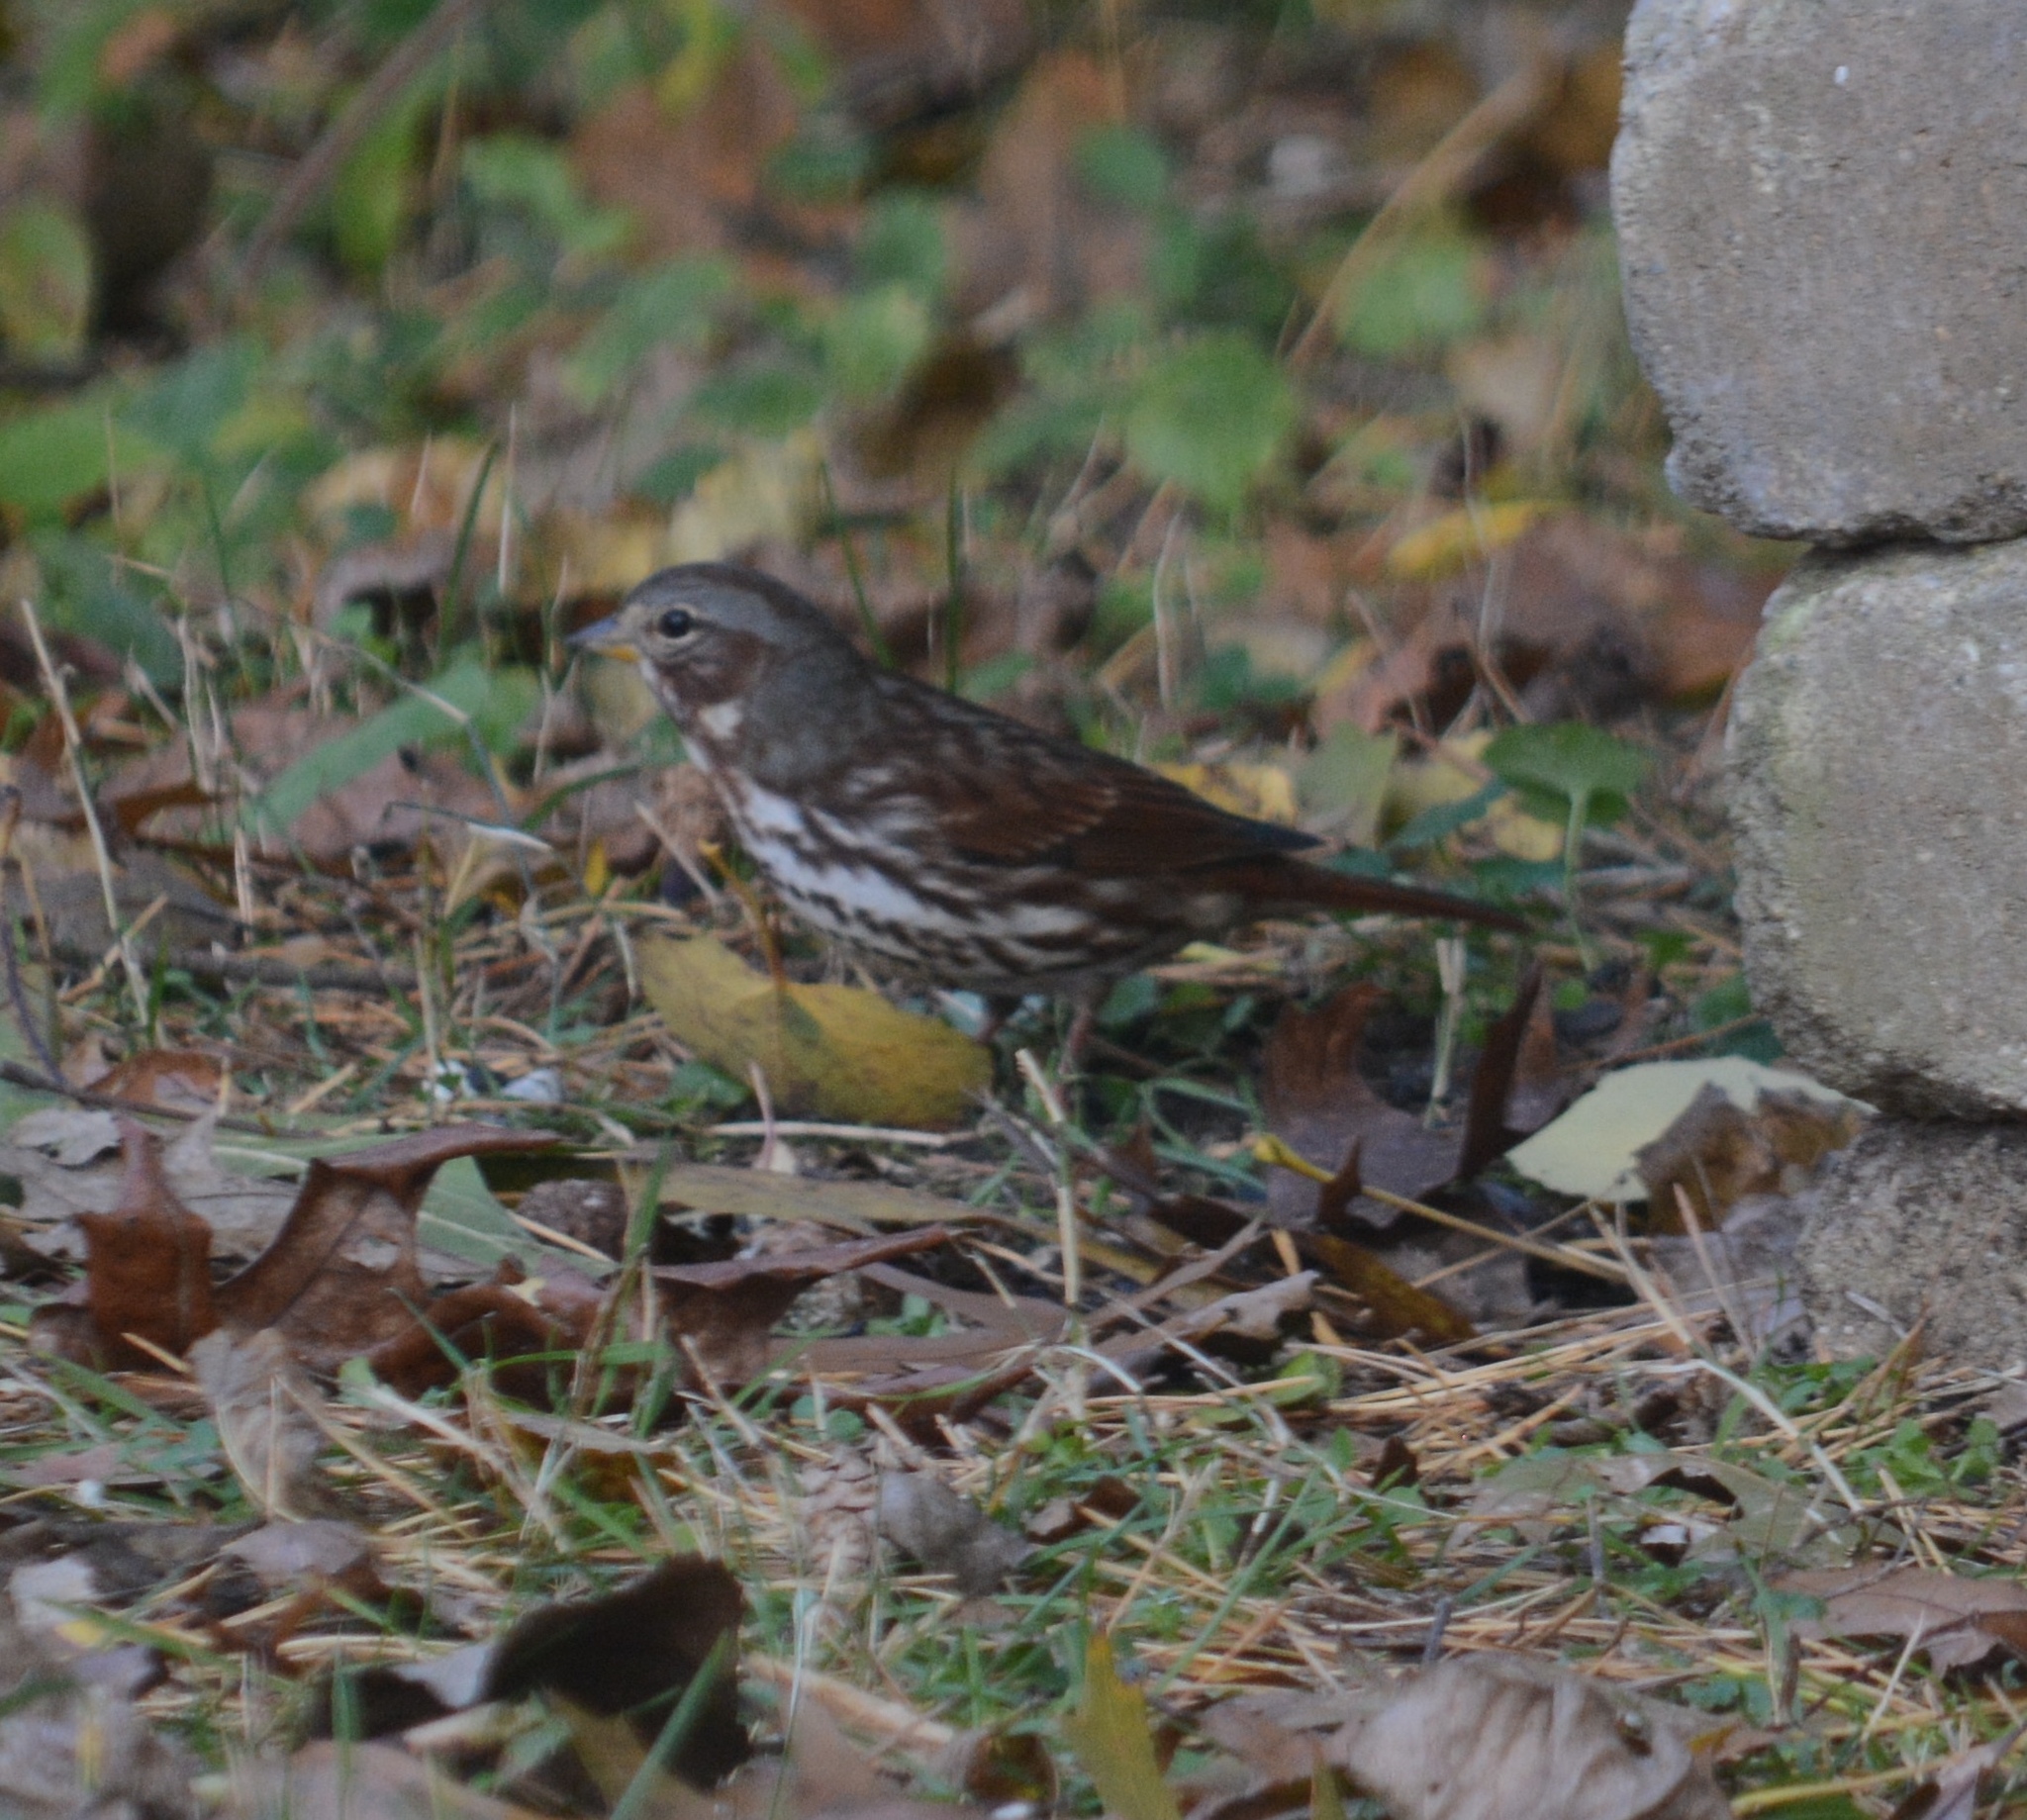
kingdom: Animalia
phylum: Chordata
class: Aves
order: Passeriformes
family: Passerellidae
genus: Passerella
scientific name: Passerella iliaca
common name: Fox sparrow
